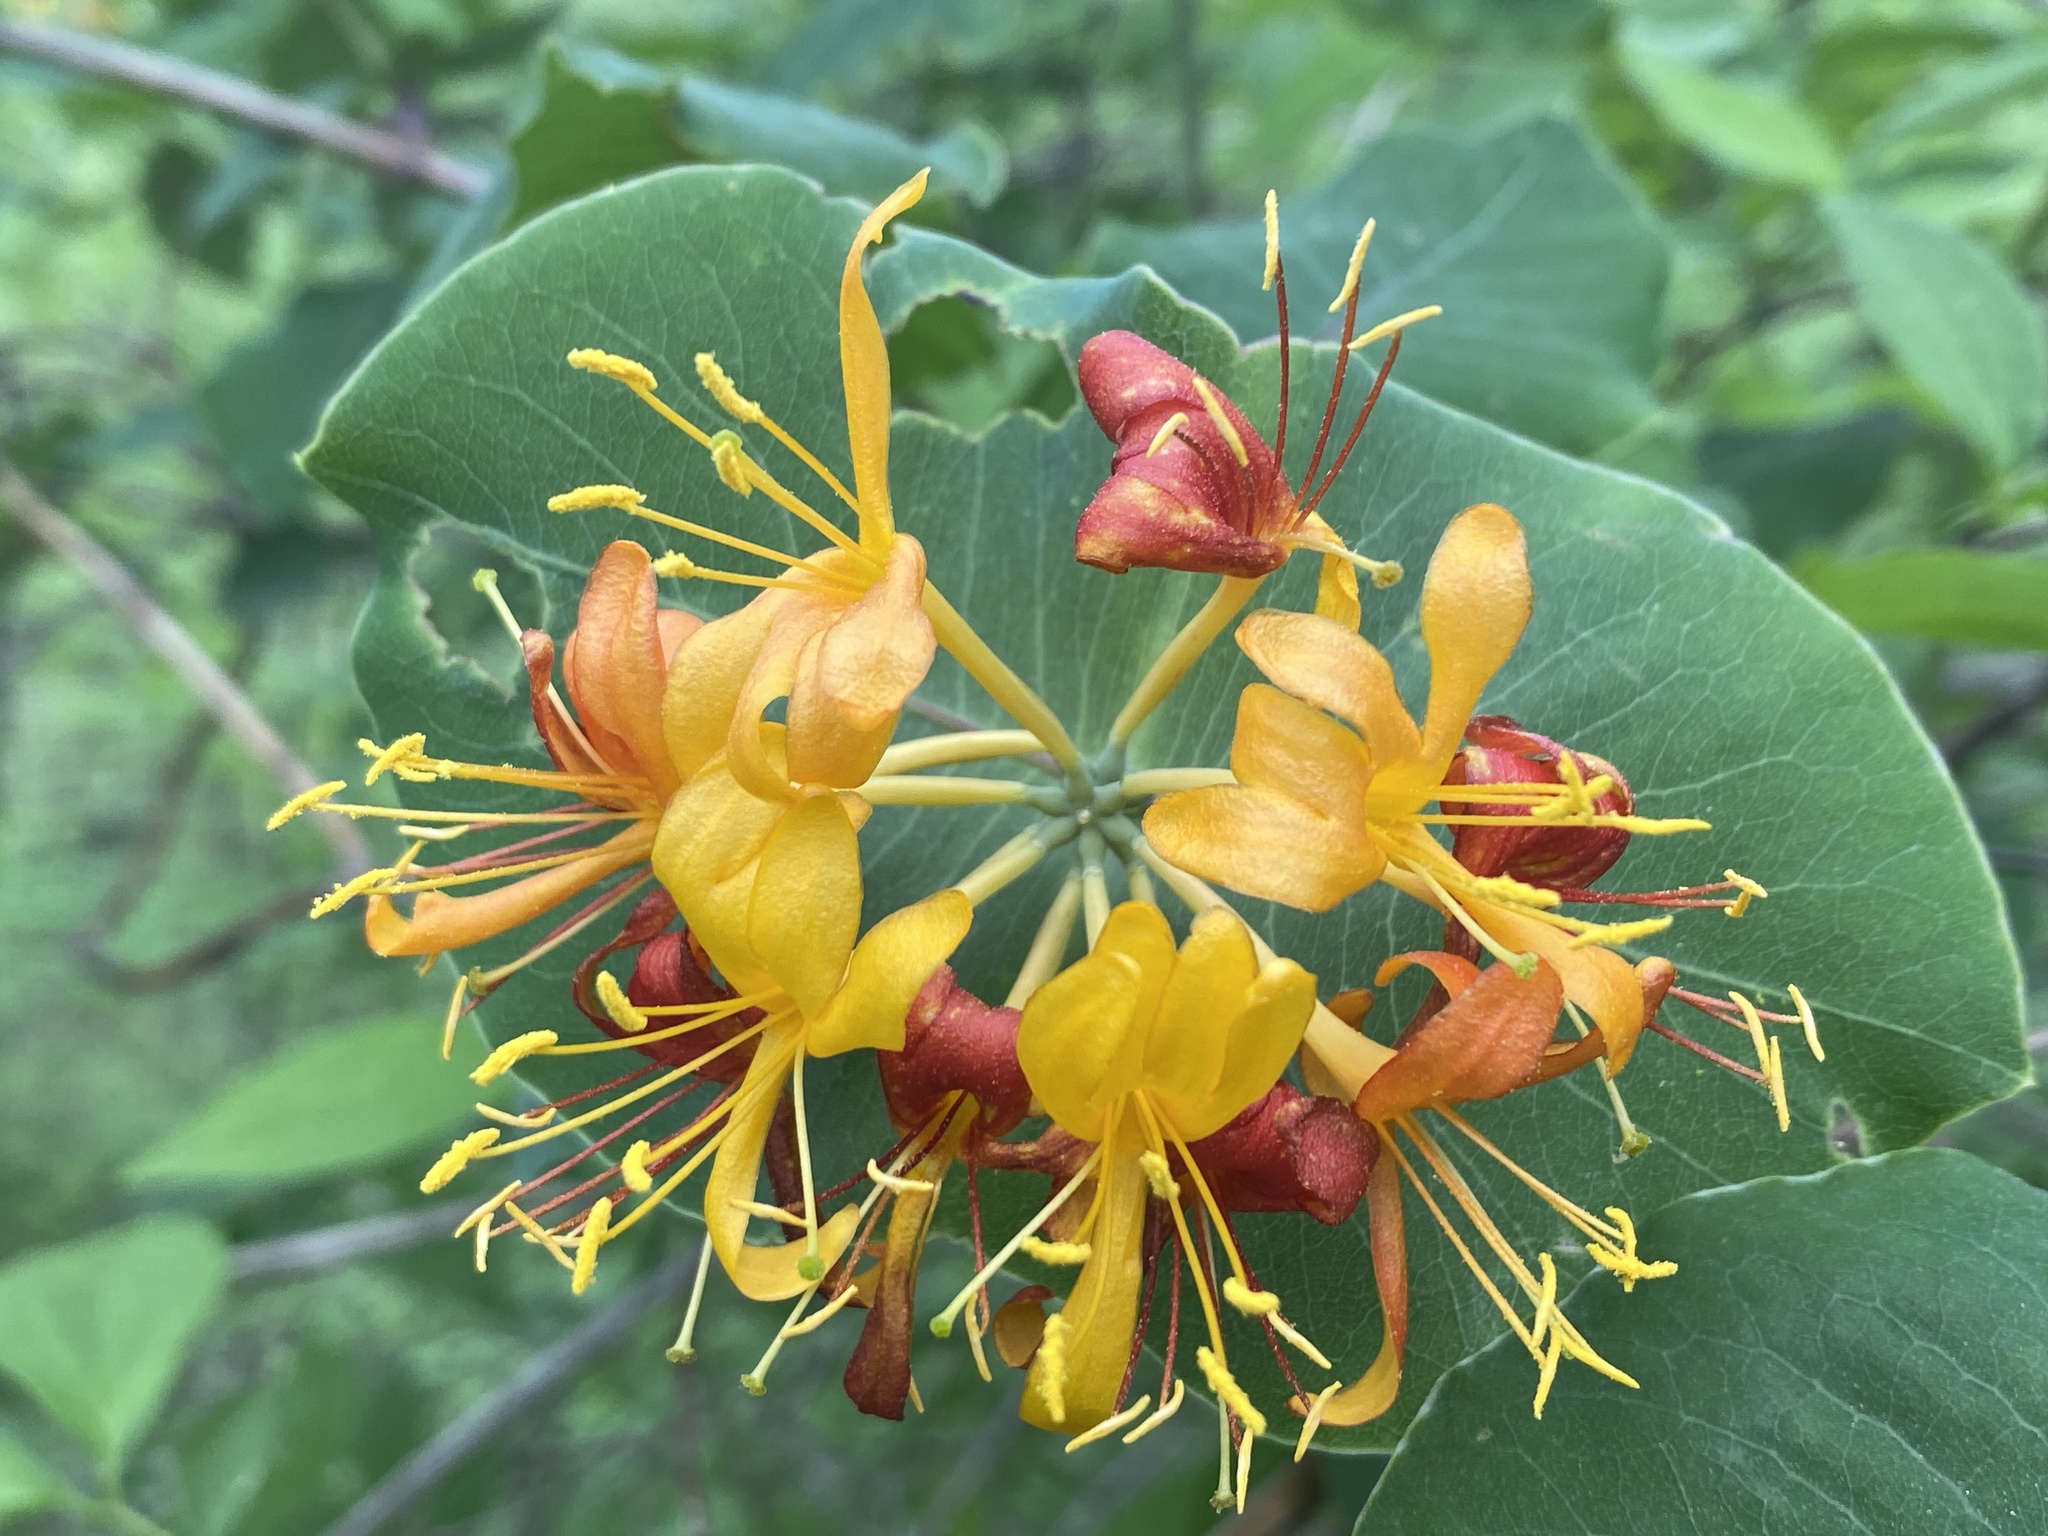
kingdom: Plantae
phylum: Tracheophyta
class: Magnoliopsida
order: Dipsacales
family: Caprifoliaceae
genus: Lonicera
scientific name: Lonicera flava
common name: Yellow honeysuckle
